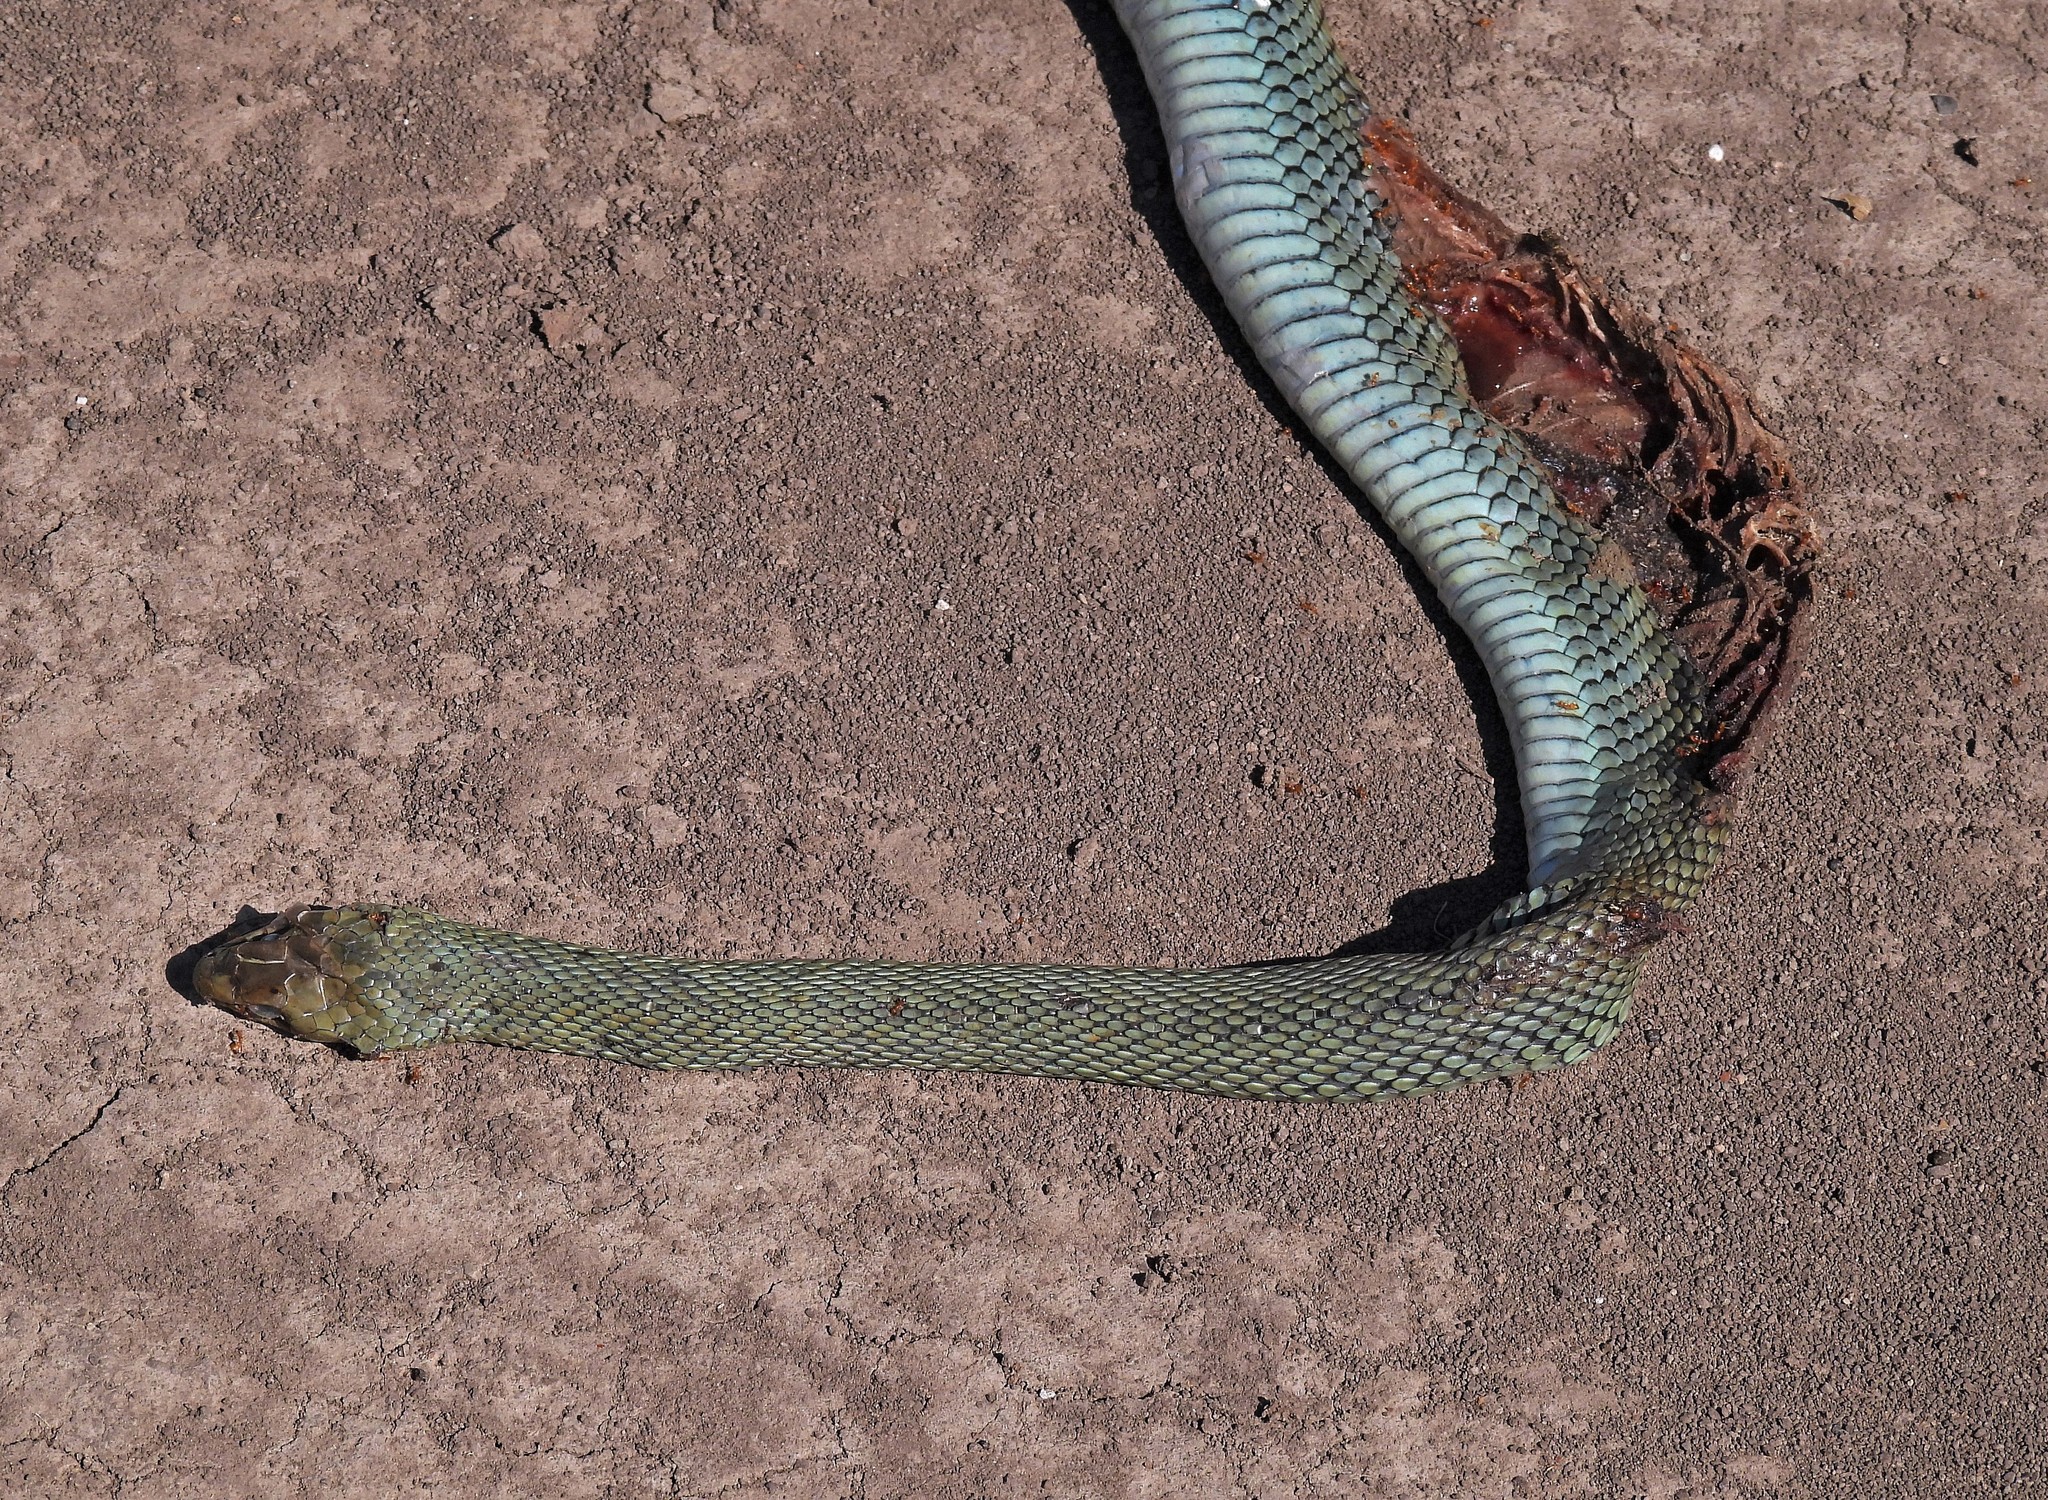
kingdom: Animalia
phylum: Chordata
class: Squamata
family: Colubridae
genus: Philodryas
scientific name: Philodryas patagoniensis
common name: Patagonia green racer
